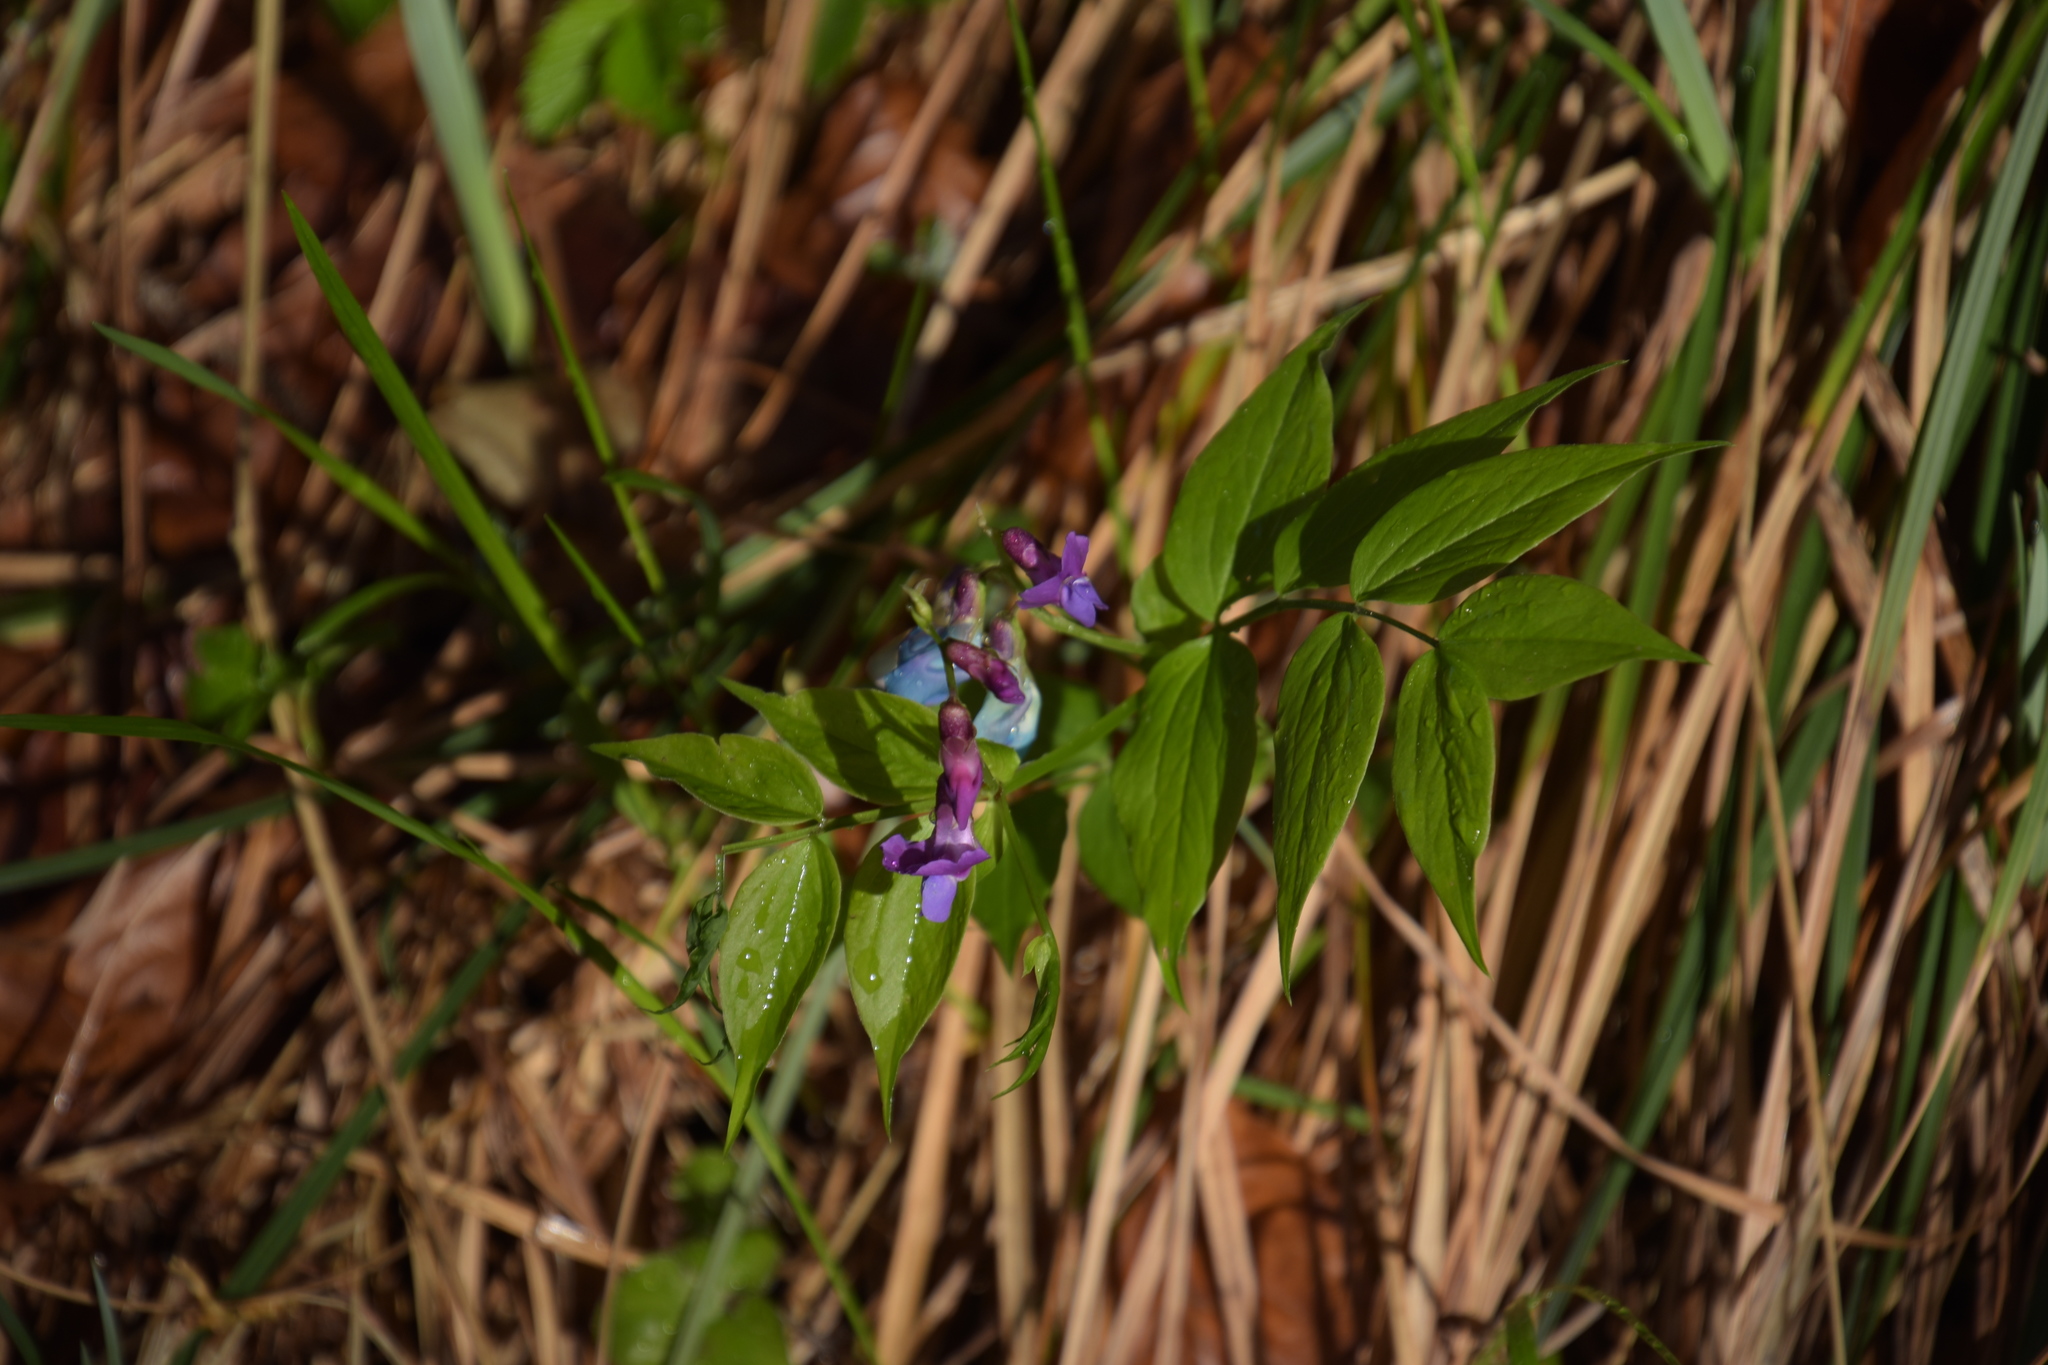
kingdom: Plantae
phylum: Tracheophyta
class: Magnoliopsida
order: Fabales
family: Fabaceae
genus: Lathyrus
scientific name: Lathyrus vernus
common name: Spring pea
